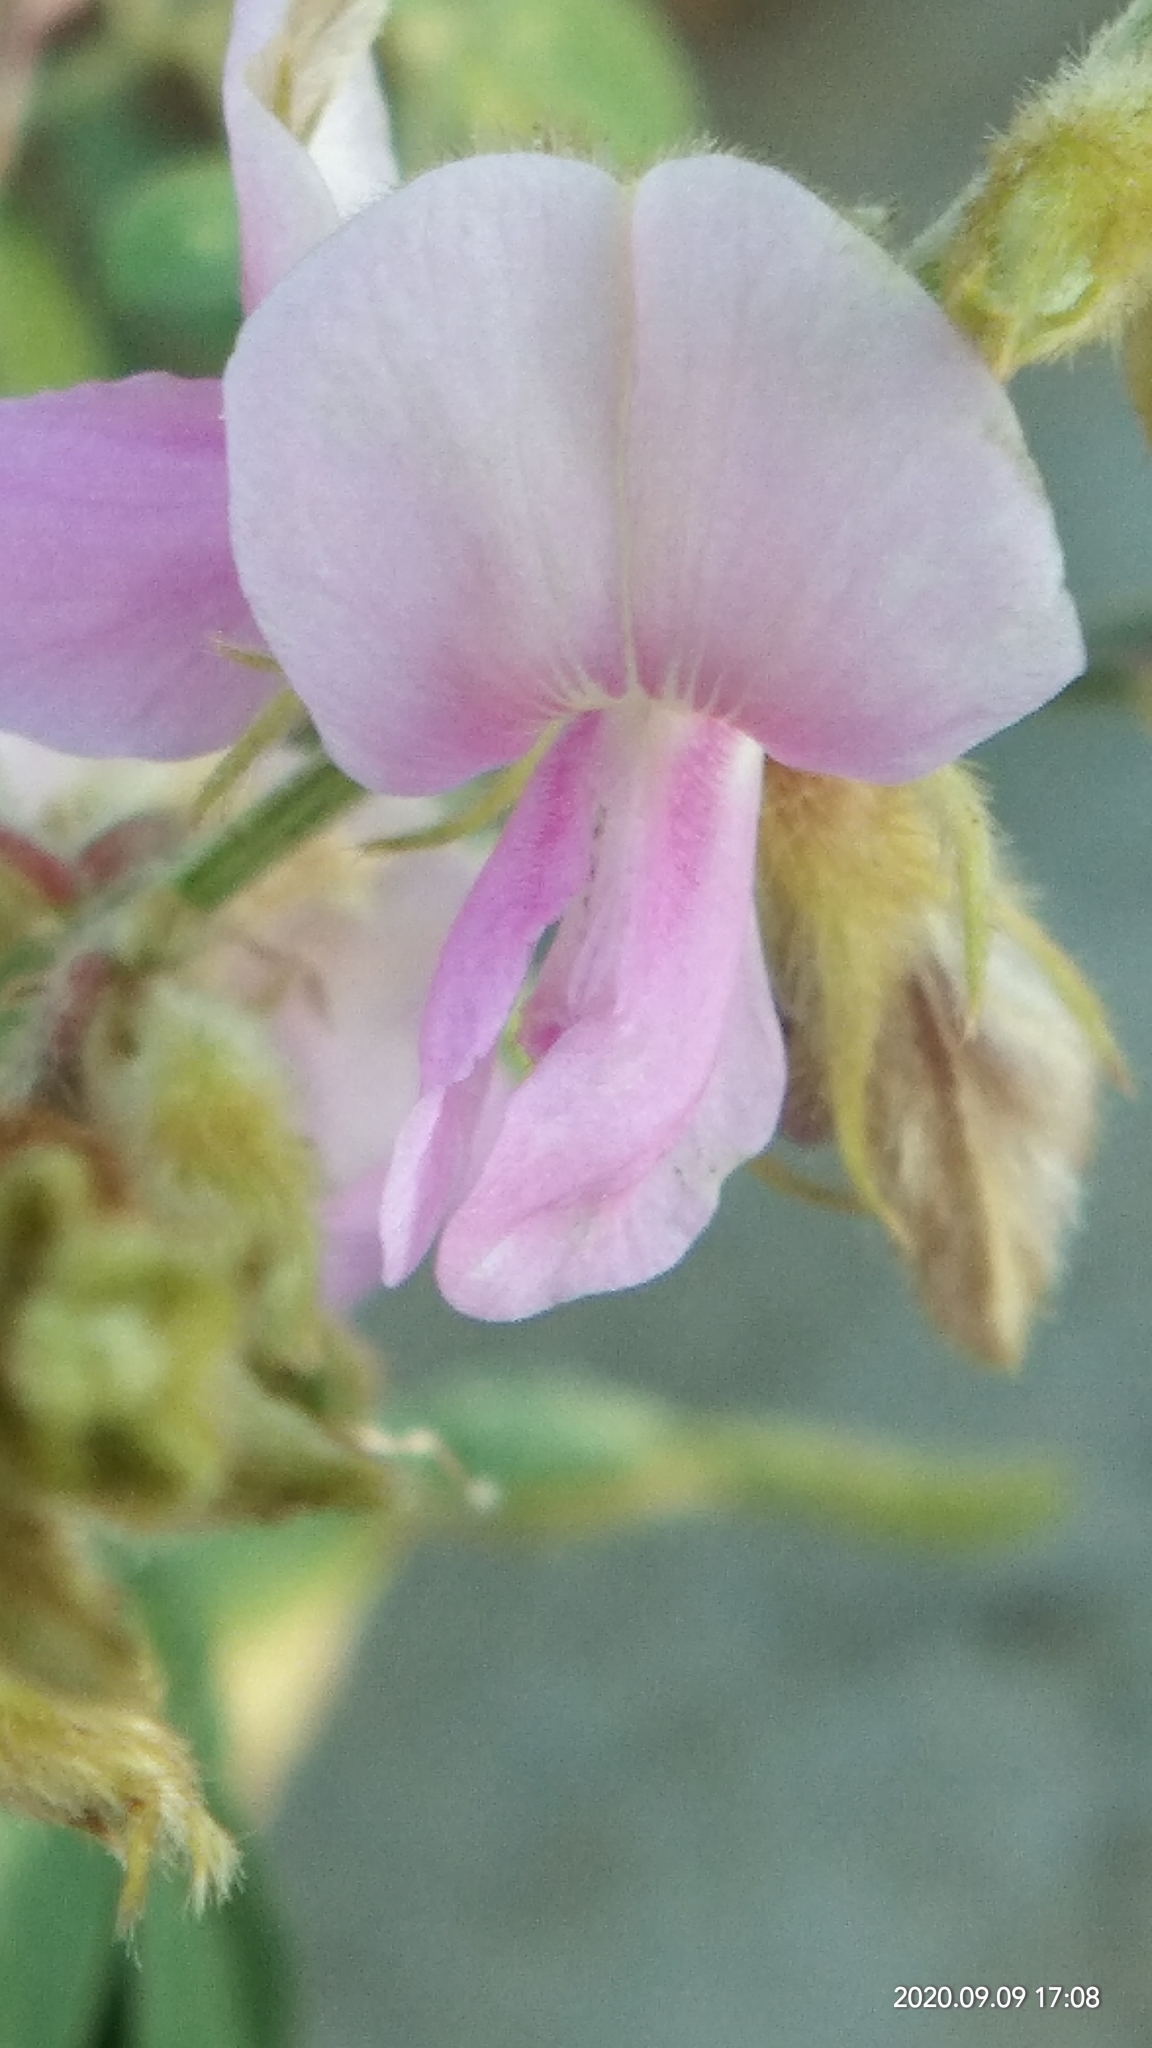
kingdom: Plantae
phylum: Tracheophyta
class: Magnoliopsida
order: Fabales
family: Fabaceae
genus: Tephrosia
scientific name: Tephrosia purpurea
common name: Fishpoison
